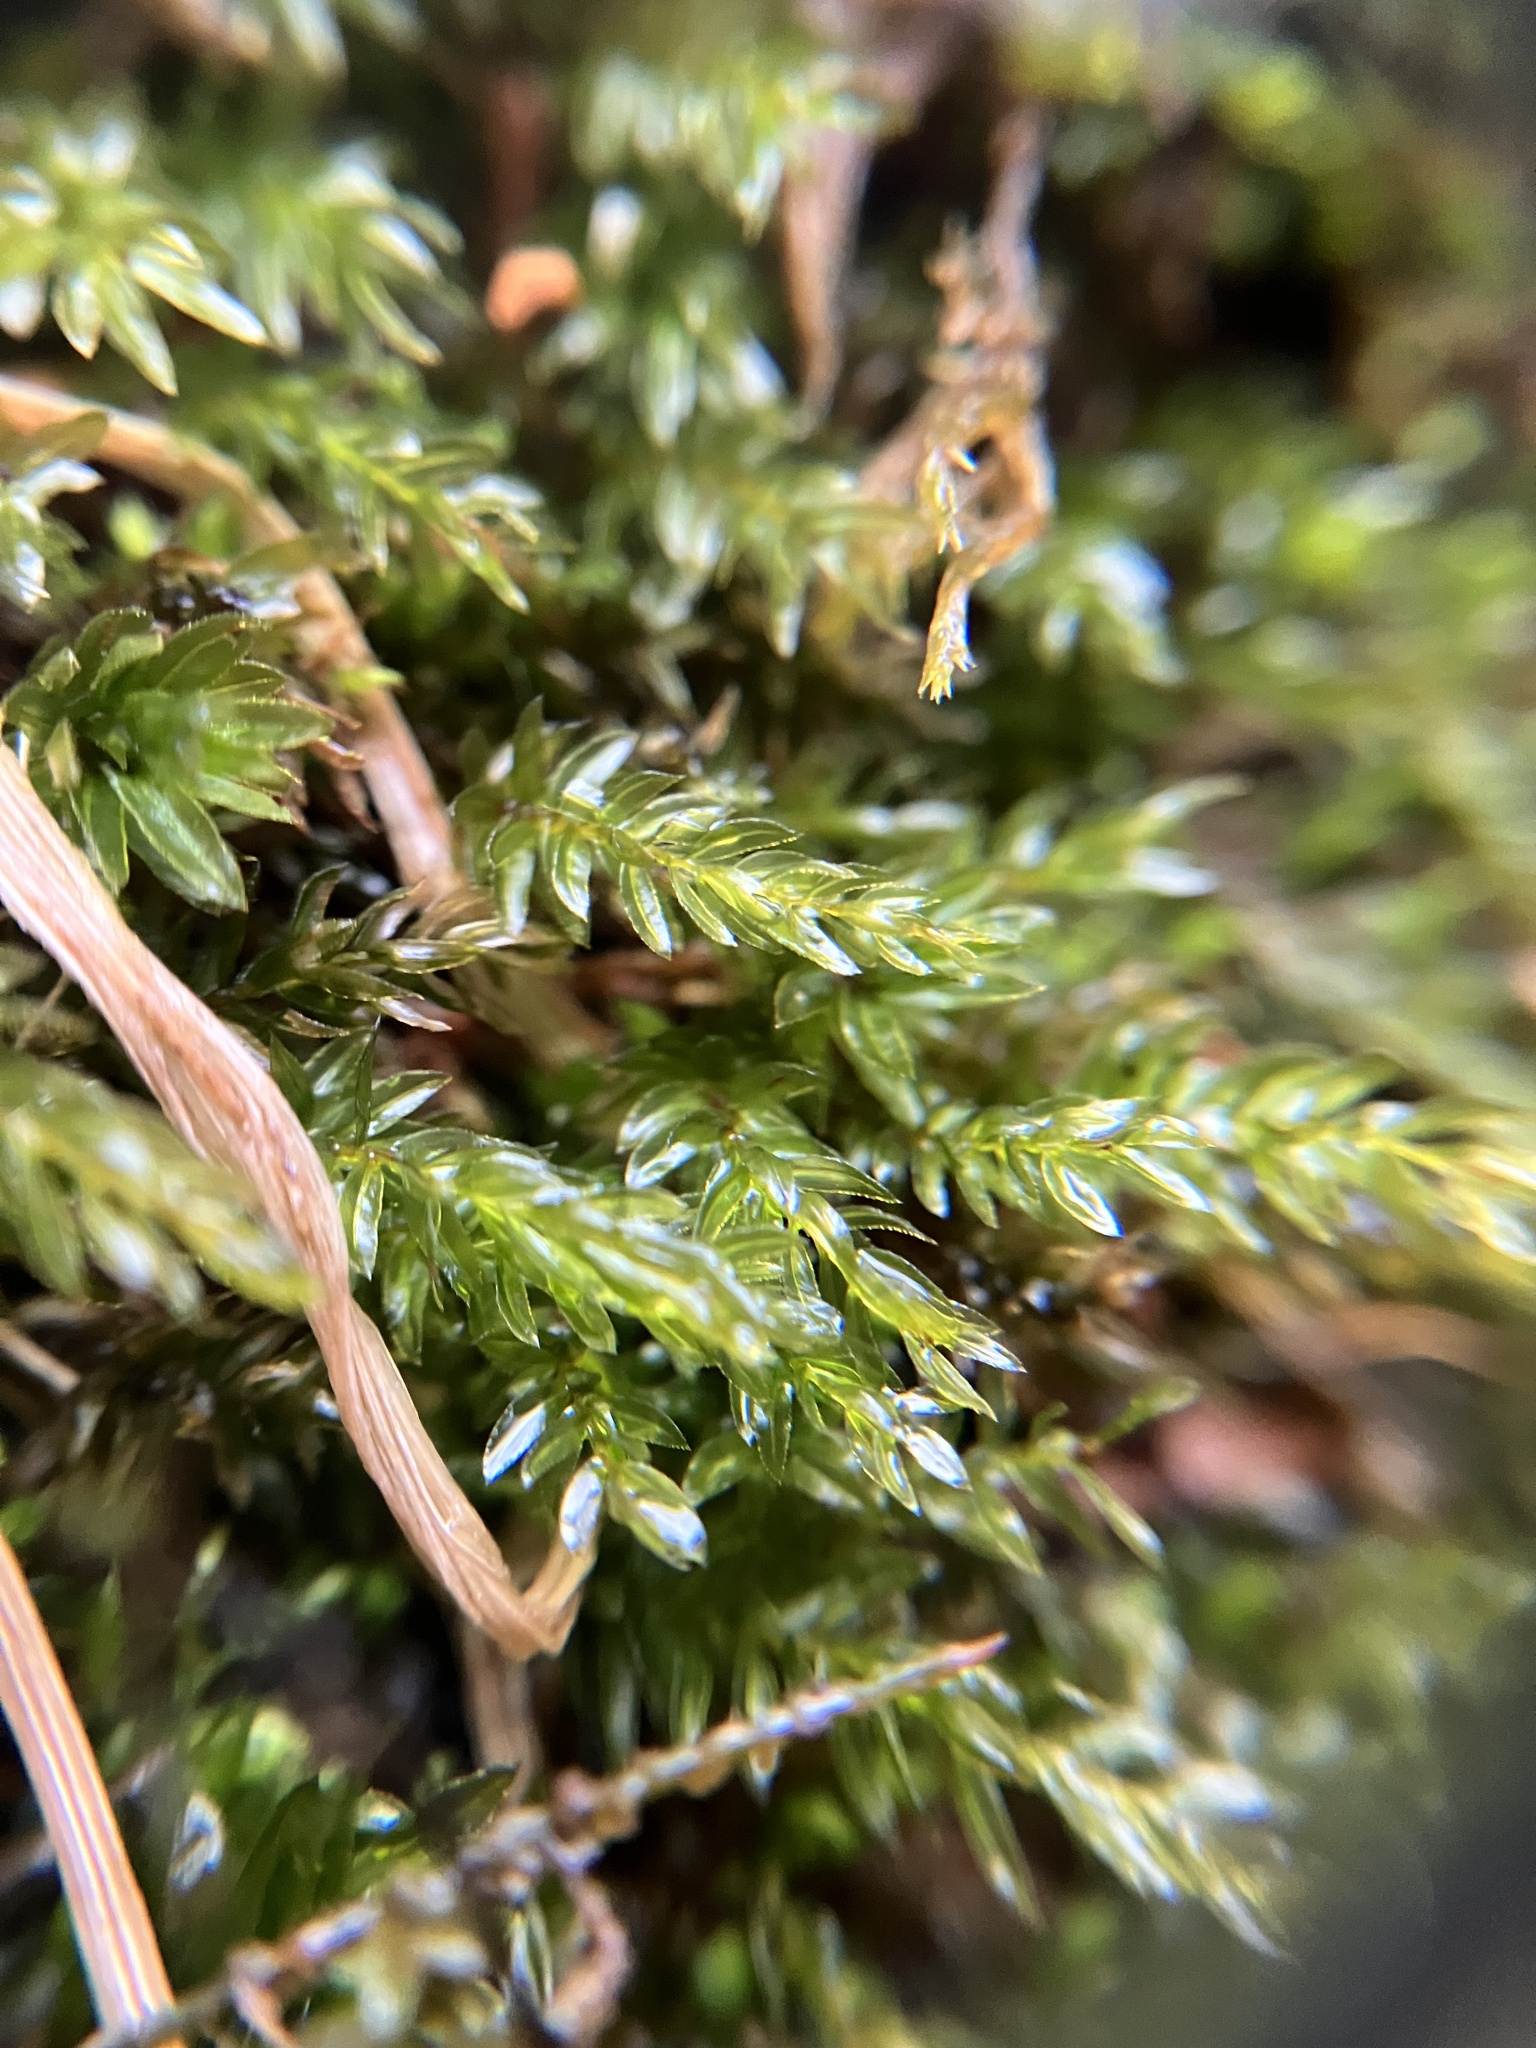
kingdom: Plantae
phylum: Bryophyta
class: Bryopsida
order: Bryales
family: Mniaceae
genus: Mnium
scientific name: Mnium hornum
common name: Swan's-neck leafy moss
